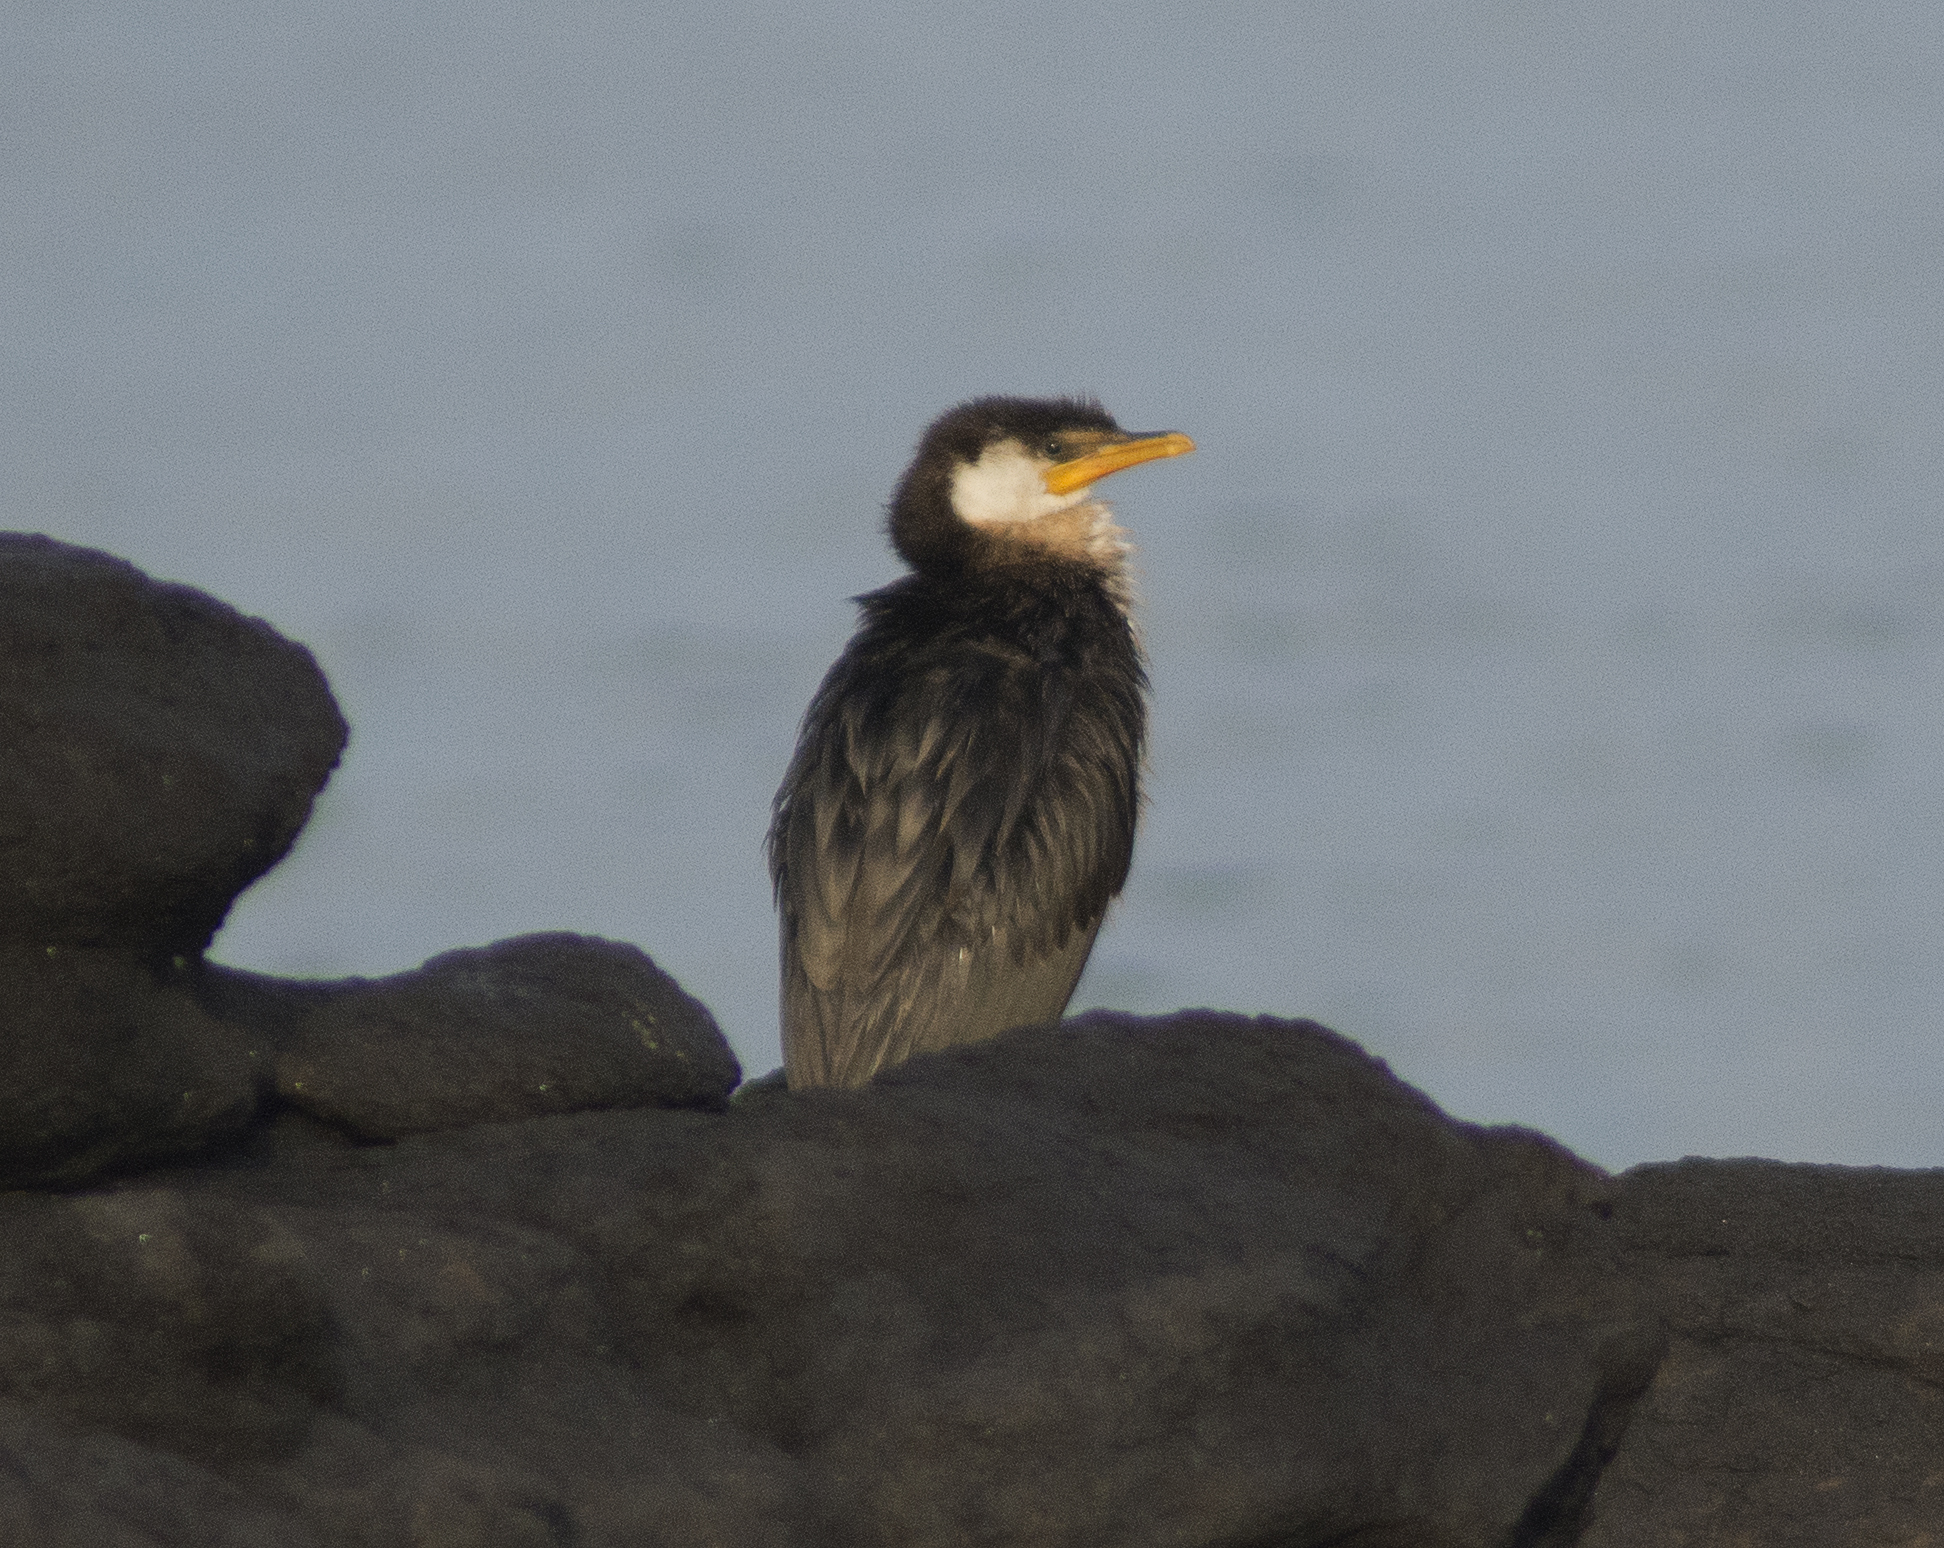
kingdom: Animalia
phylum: Chordata
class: Aves
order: Suliformes
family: Phalacrocoracidae
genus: Microcarbo
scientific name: Microcarbo melanoleucos
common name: Little pied cormorant
